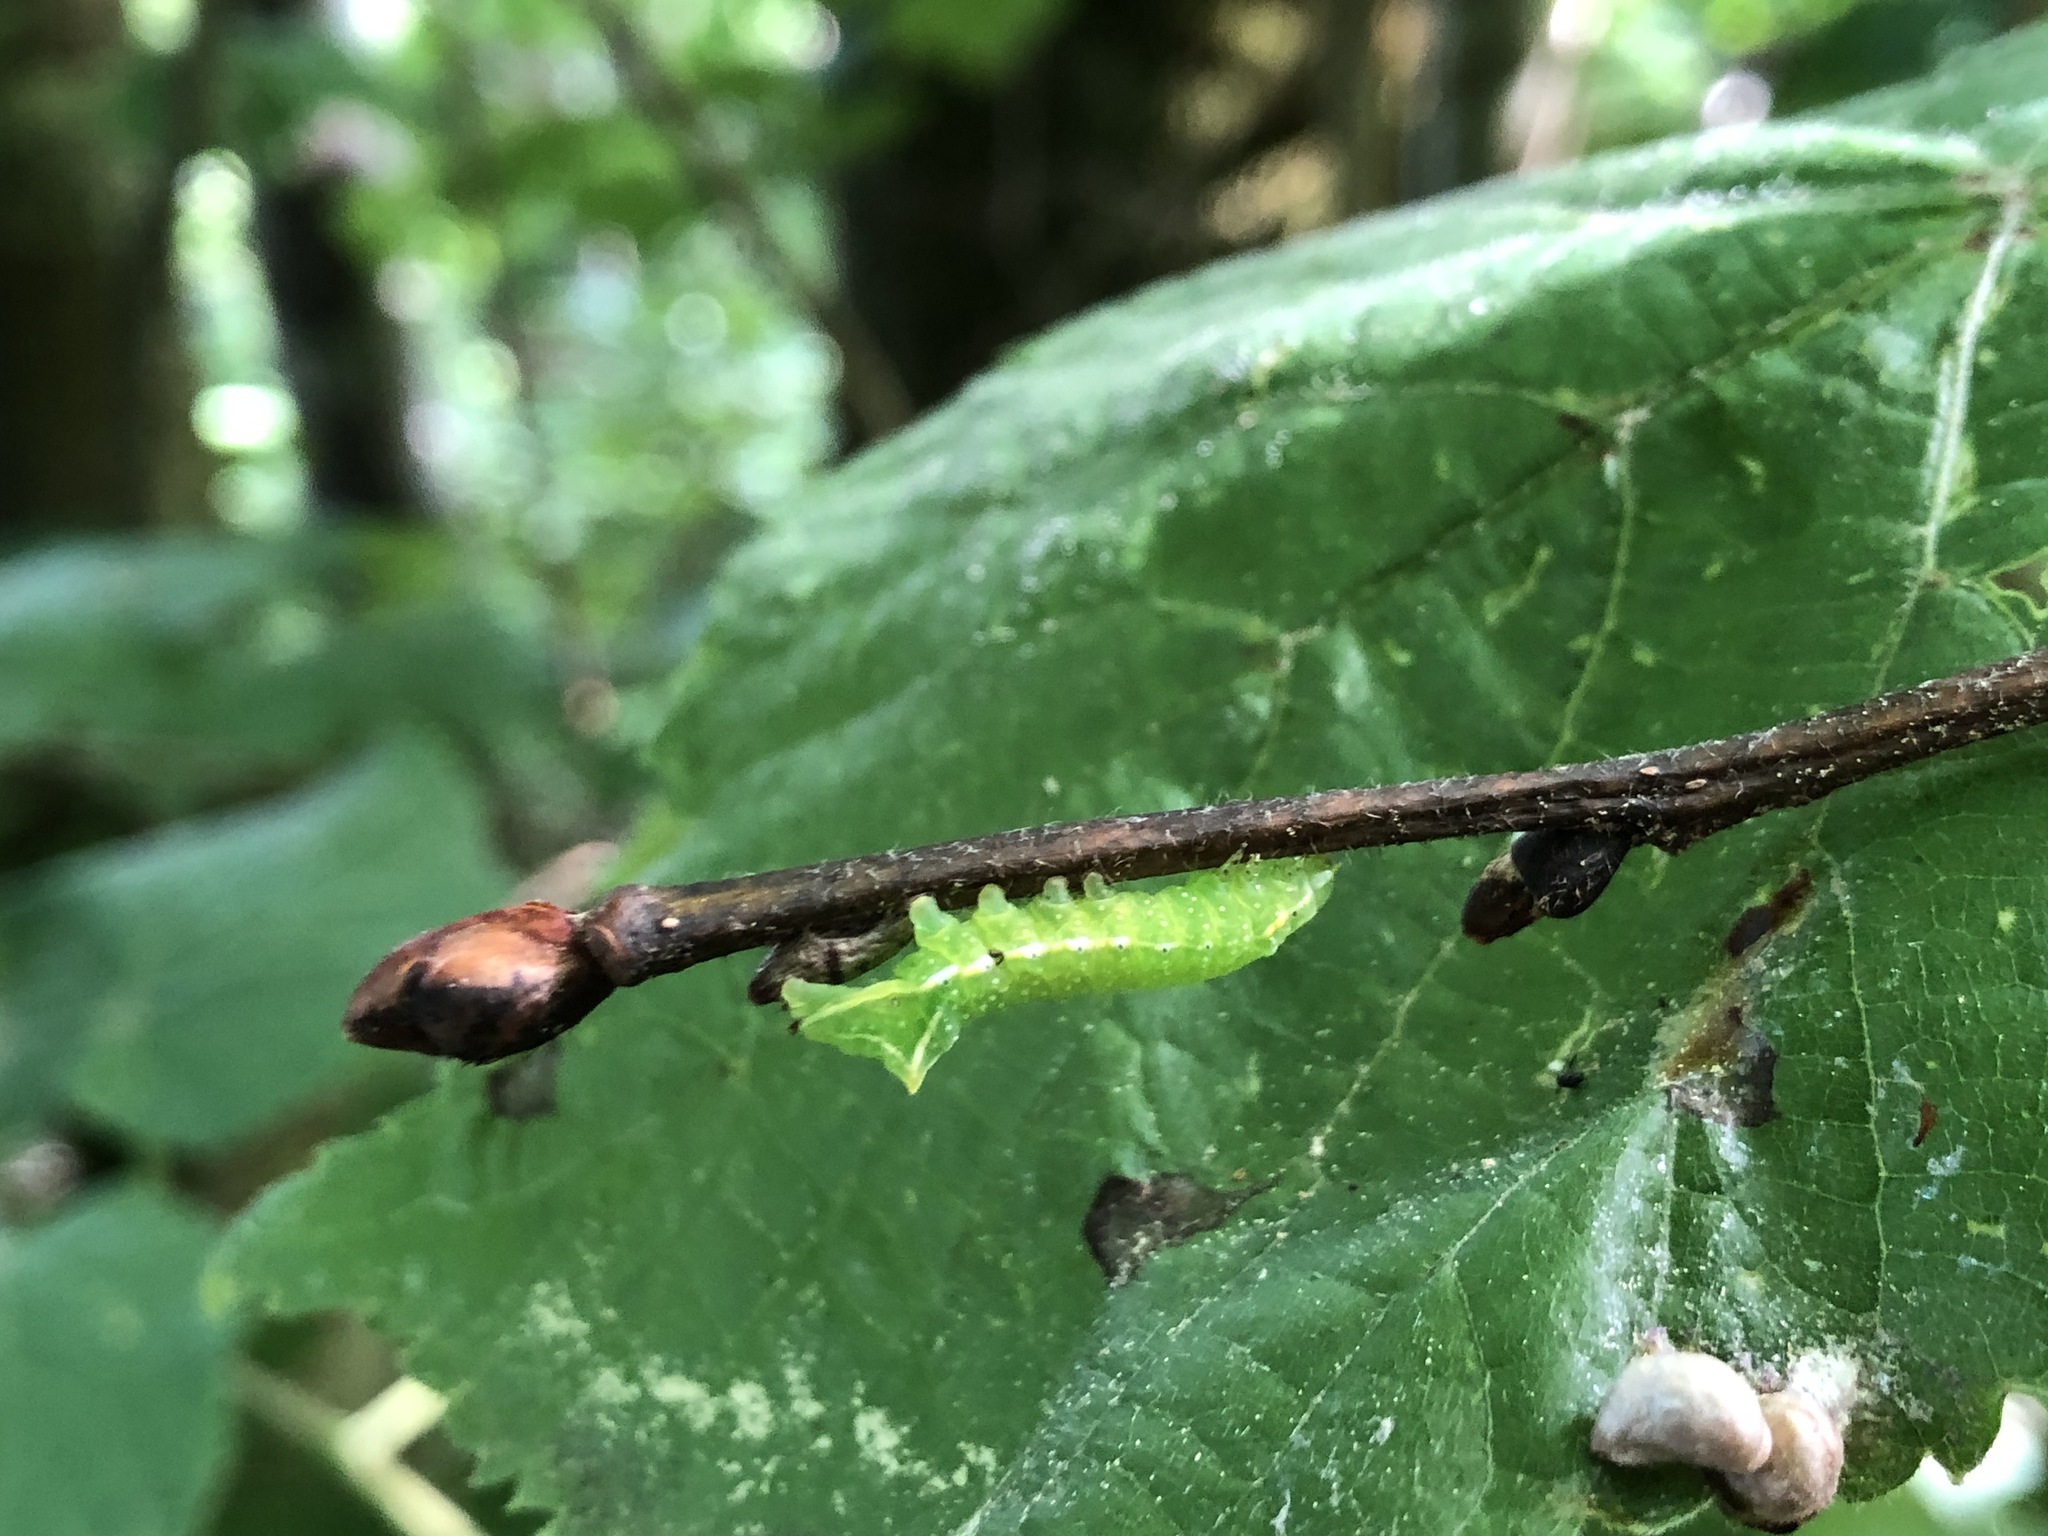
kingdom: Animalia
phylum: Arthropoda
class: Insecta
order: Lepidoptera
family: Noctuidae
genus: Amphipyra
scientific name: Amphipyra pyramidea
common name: Copper underwing
